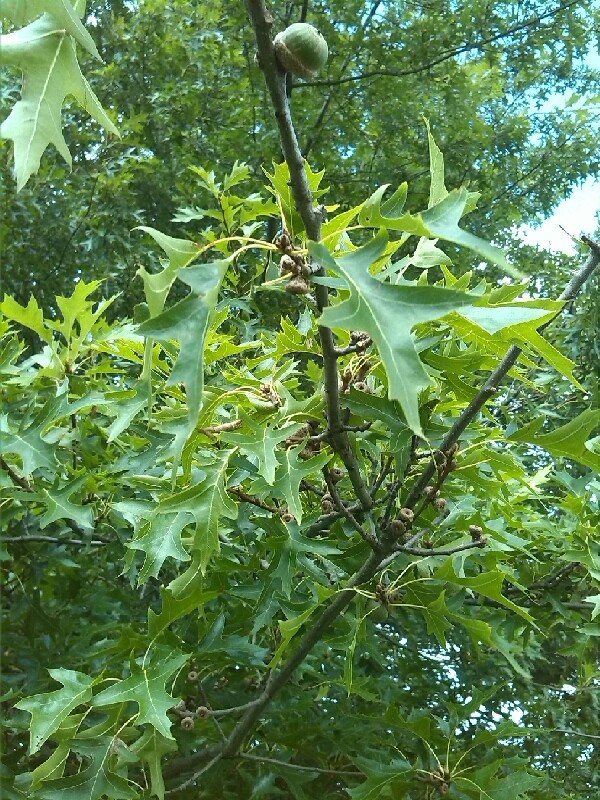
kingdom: Plantae
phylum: Tracheophyta
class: Magnoliopsida
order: Fagales
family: Fagaceae
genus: Quercus
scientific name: Quercus palustris
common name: Pin oak
